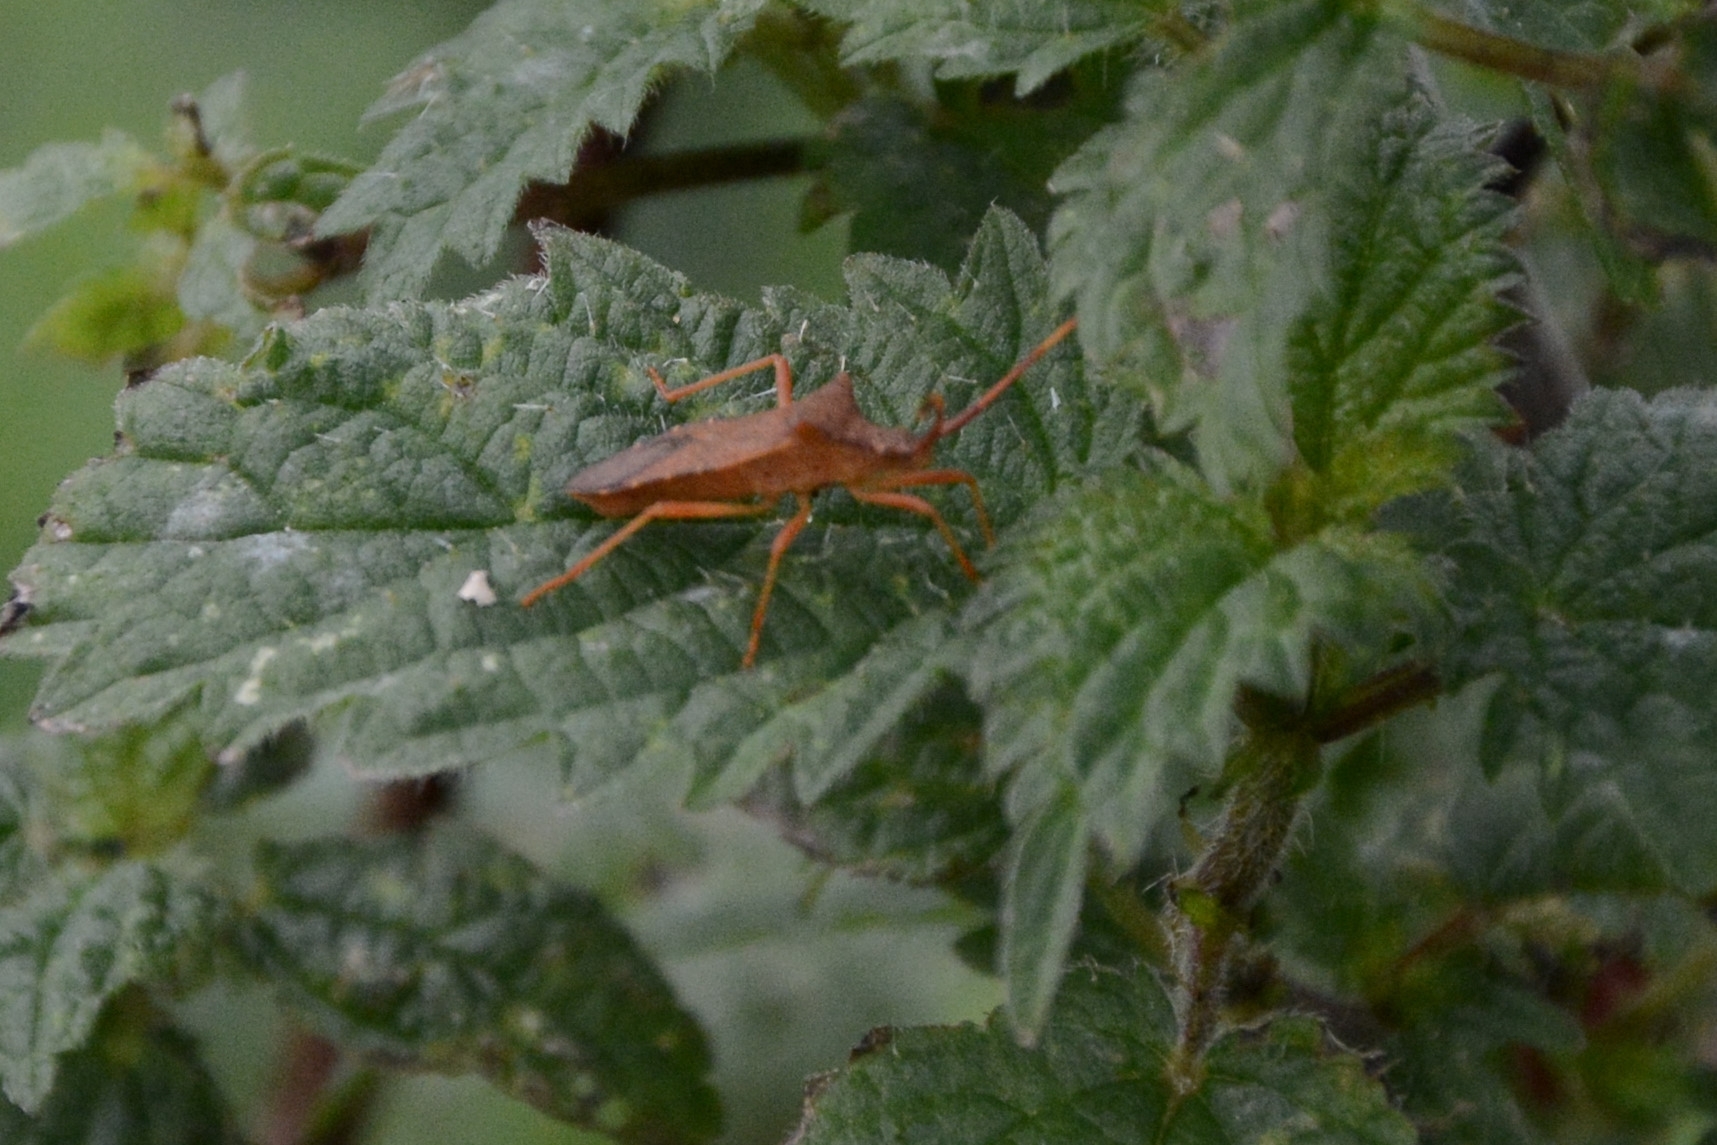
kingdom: Animalia
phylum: Arthropoda
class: Insecta
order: Hemiptera
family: Coreidae
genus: Gonocerus
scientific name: Gonocerus acuteangulatus
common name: Box bug
